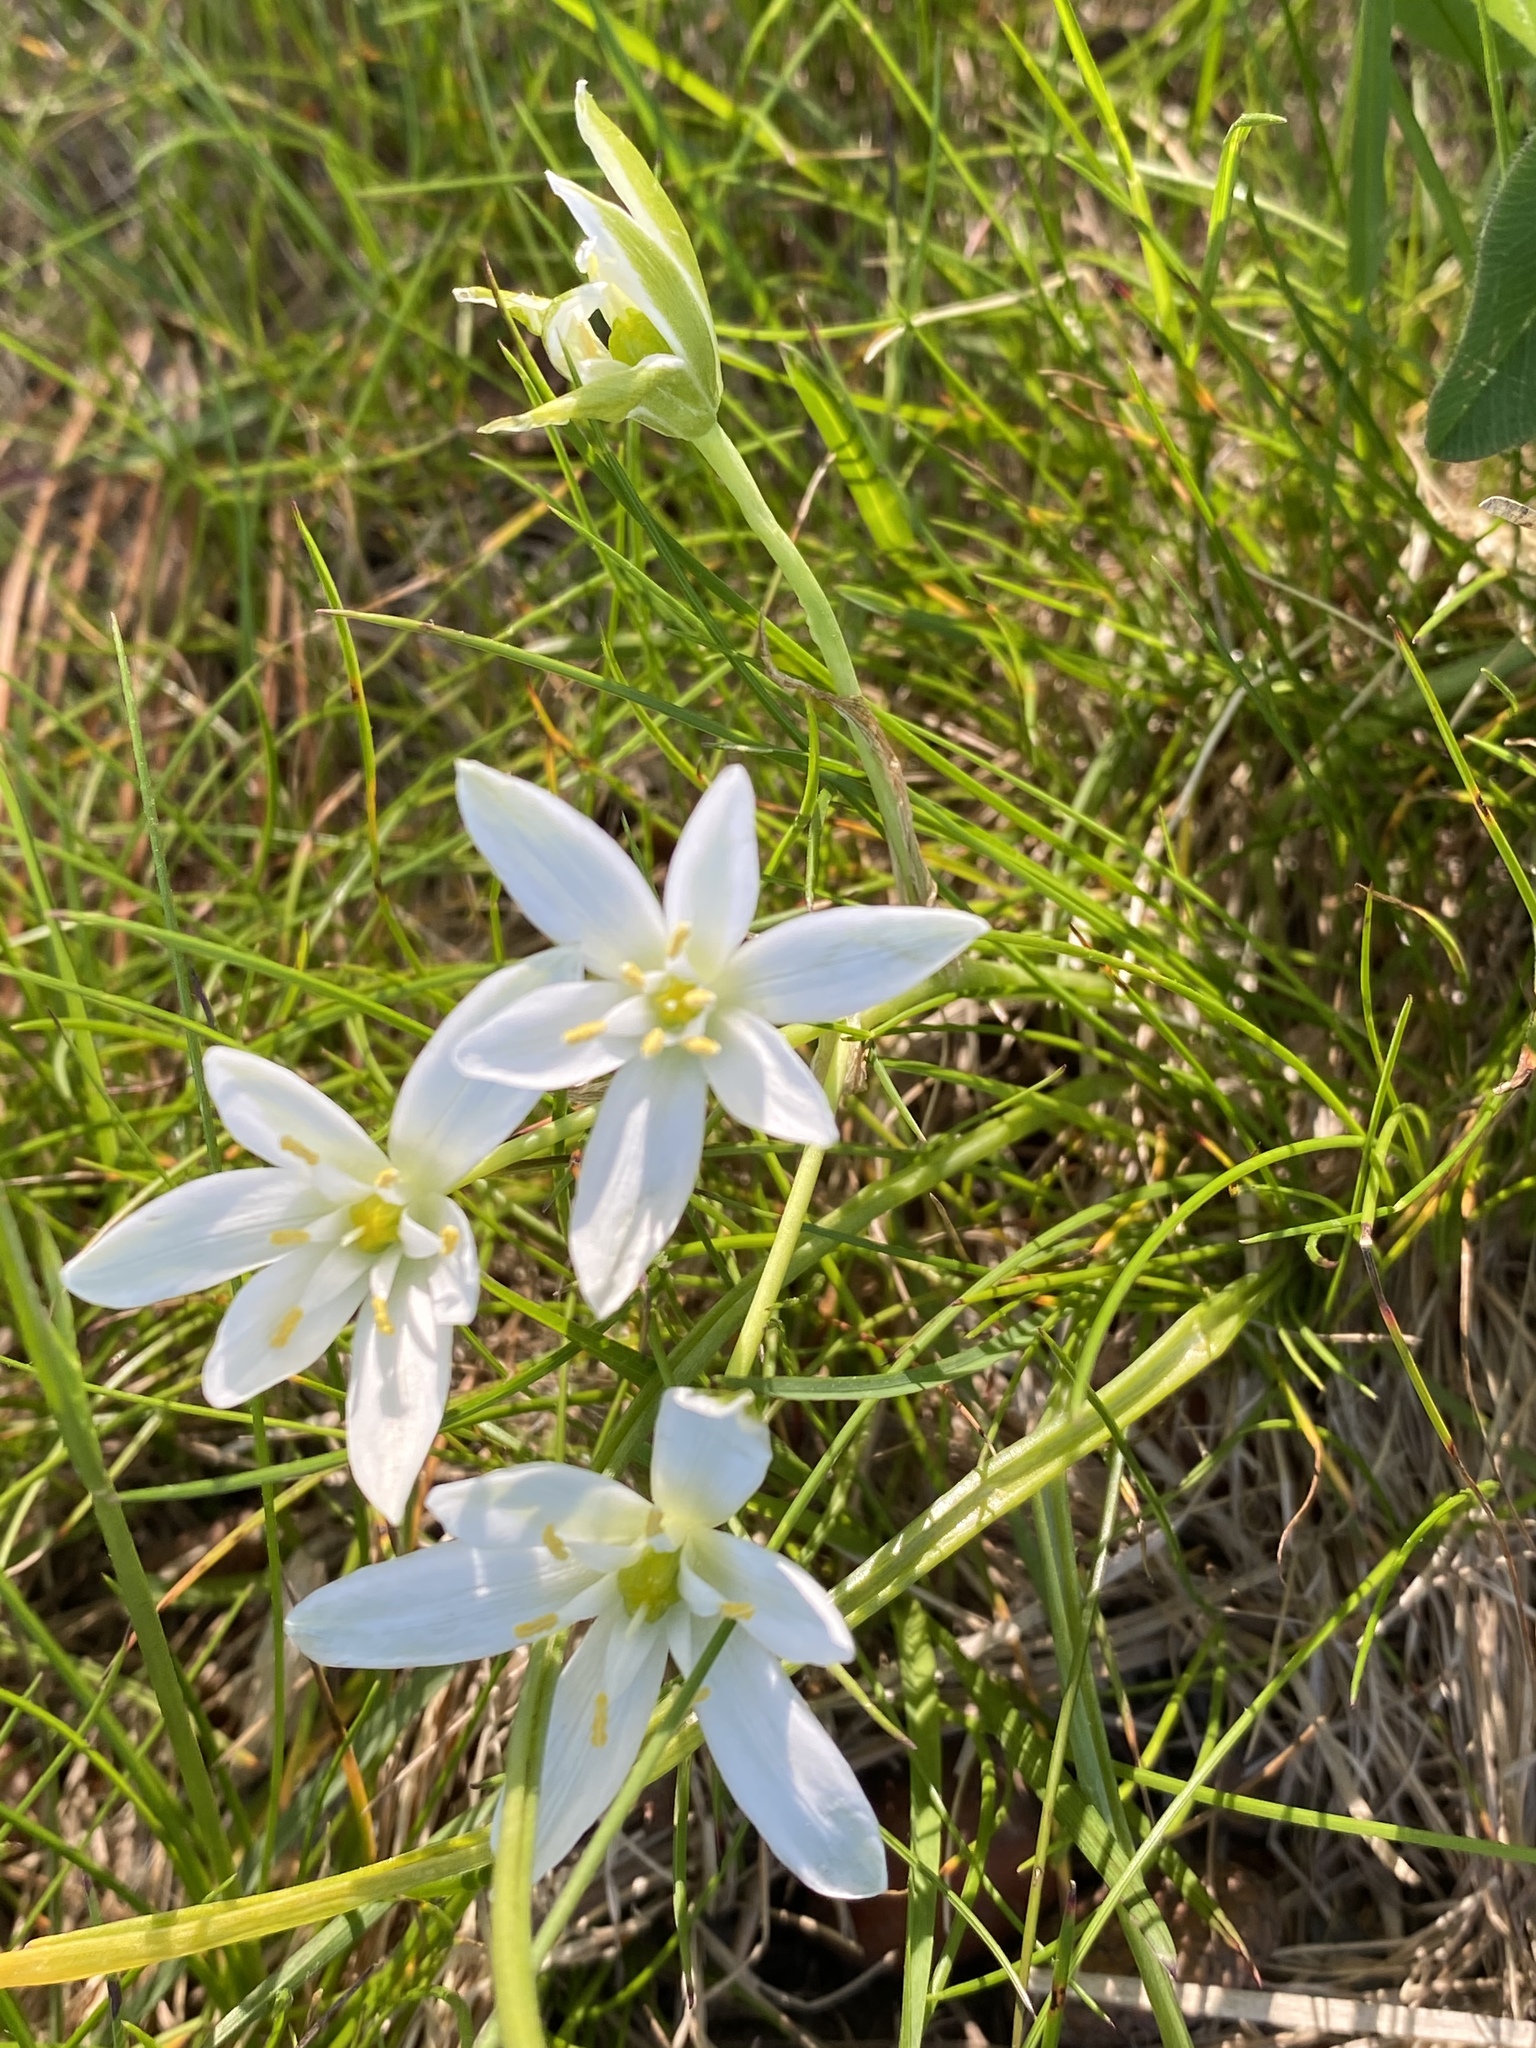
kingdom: Plantae
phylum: Tracheophyta
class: Liliopsida
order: Asparagales
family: Asparagaceae
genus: Ornithogalum
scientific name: Ornithogalum umbellatum
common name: Garden star-of-bethlehem
